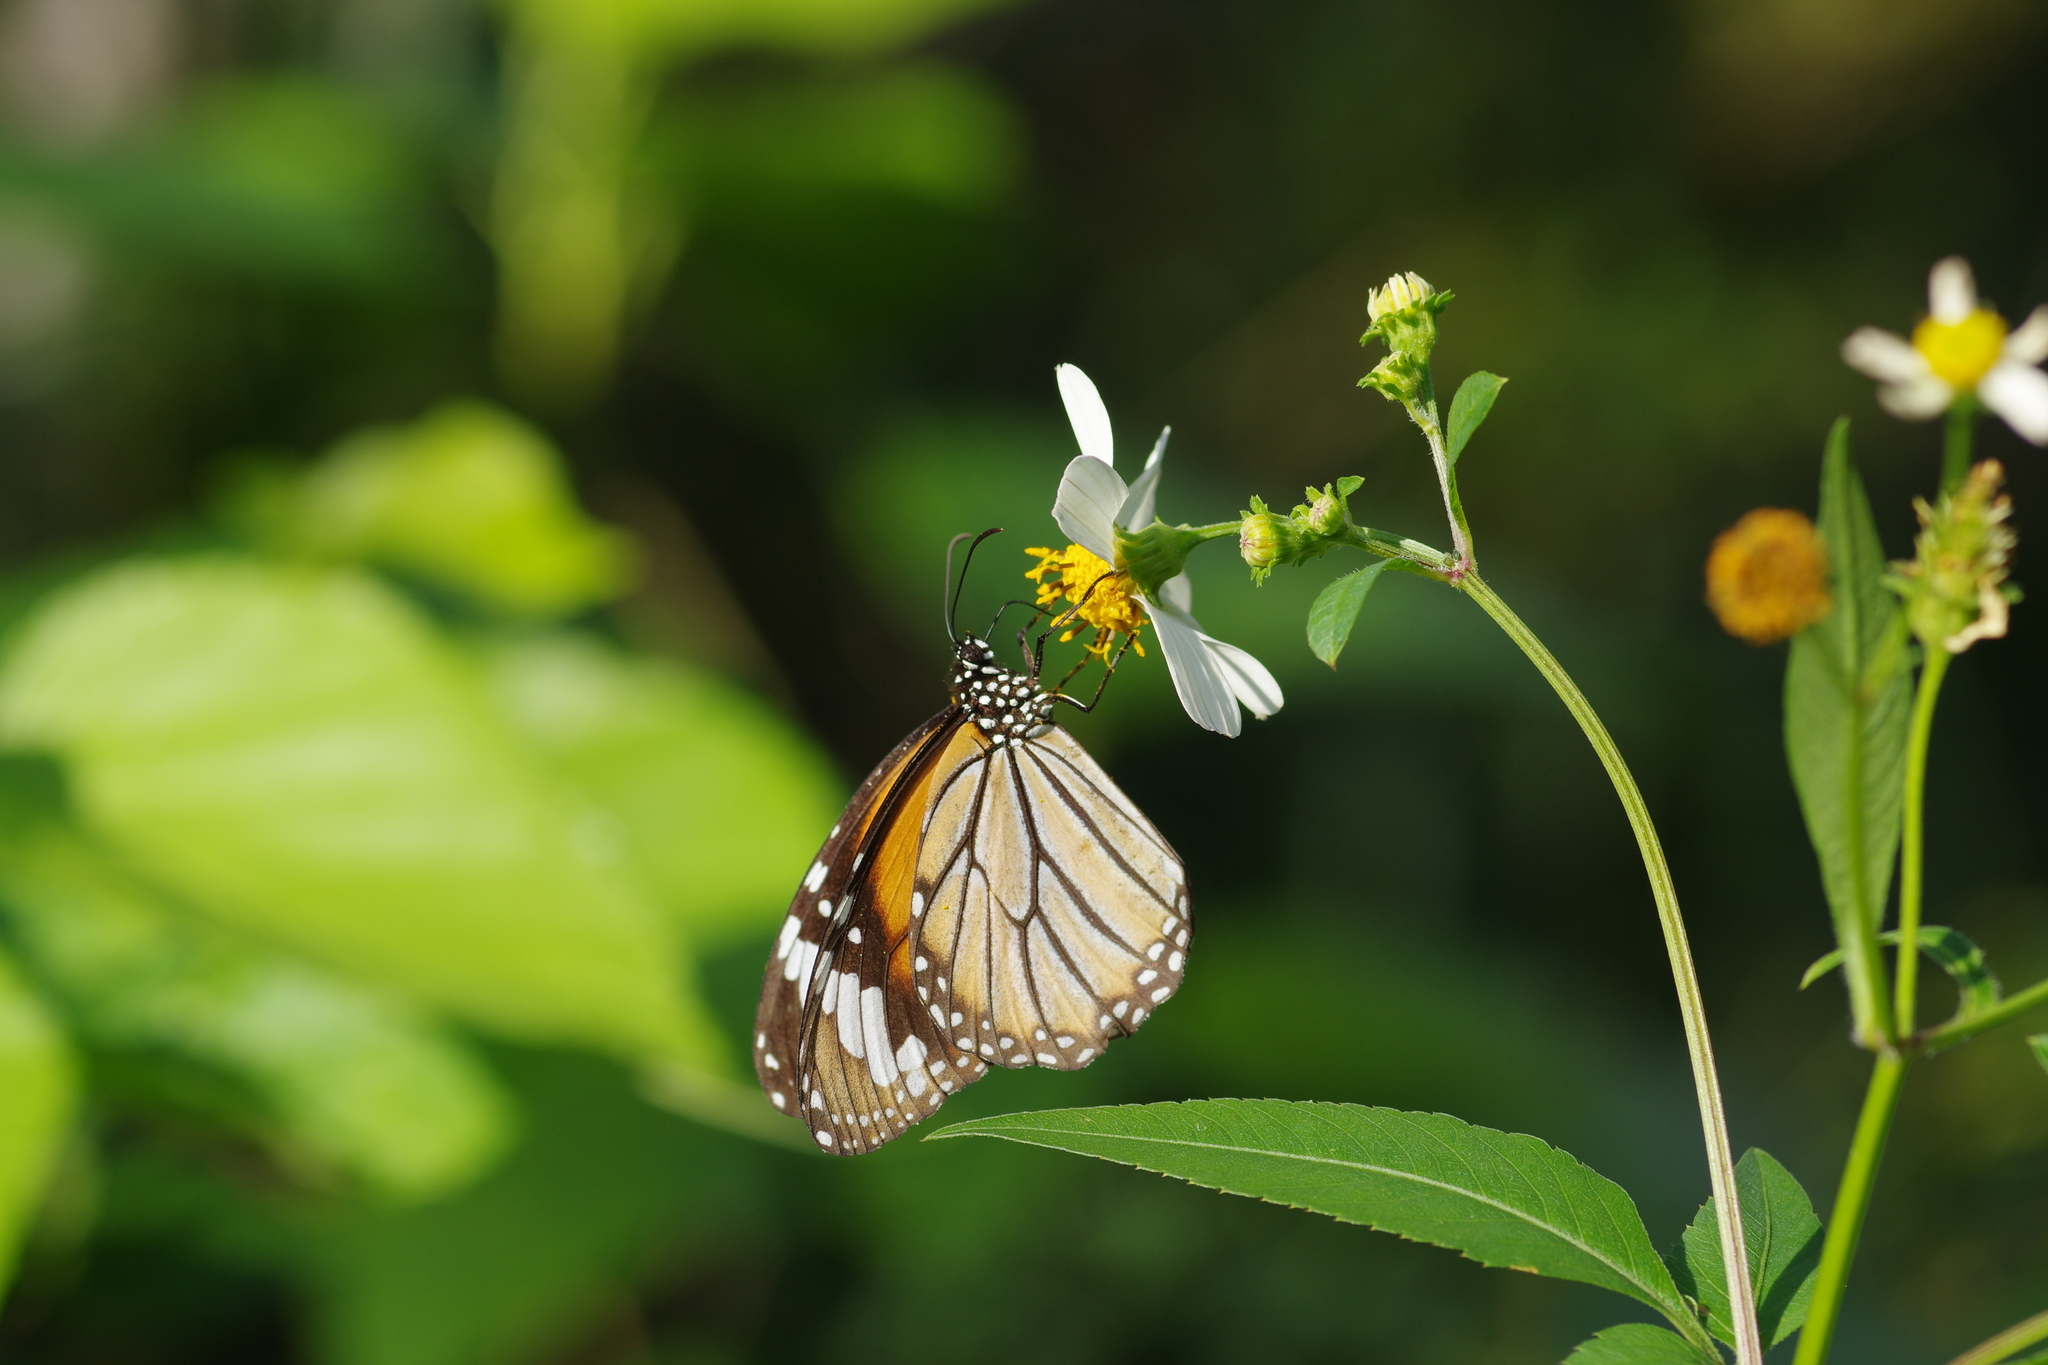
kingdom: Animalia
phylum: Arthropoda
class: Insecta
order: Lepidoptera
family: Nymphalidae
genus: Danaus
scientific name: Danaus genutia
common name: Common tiger butterfly
